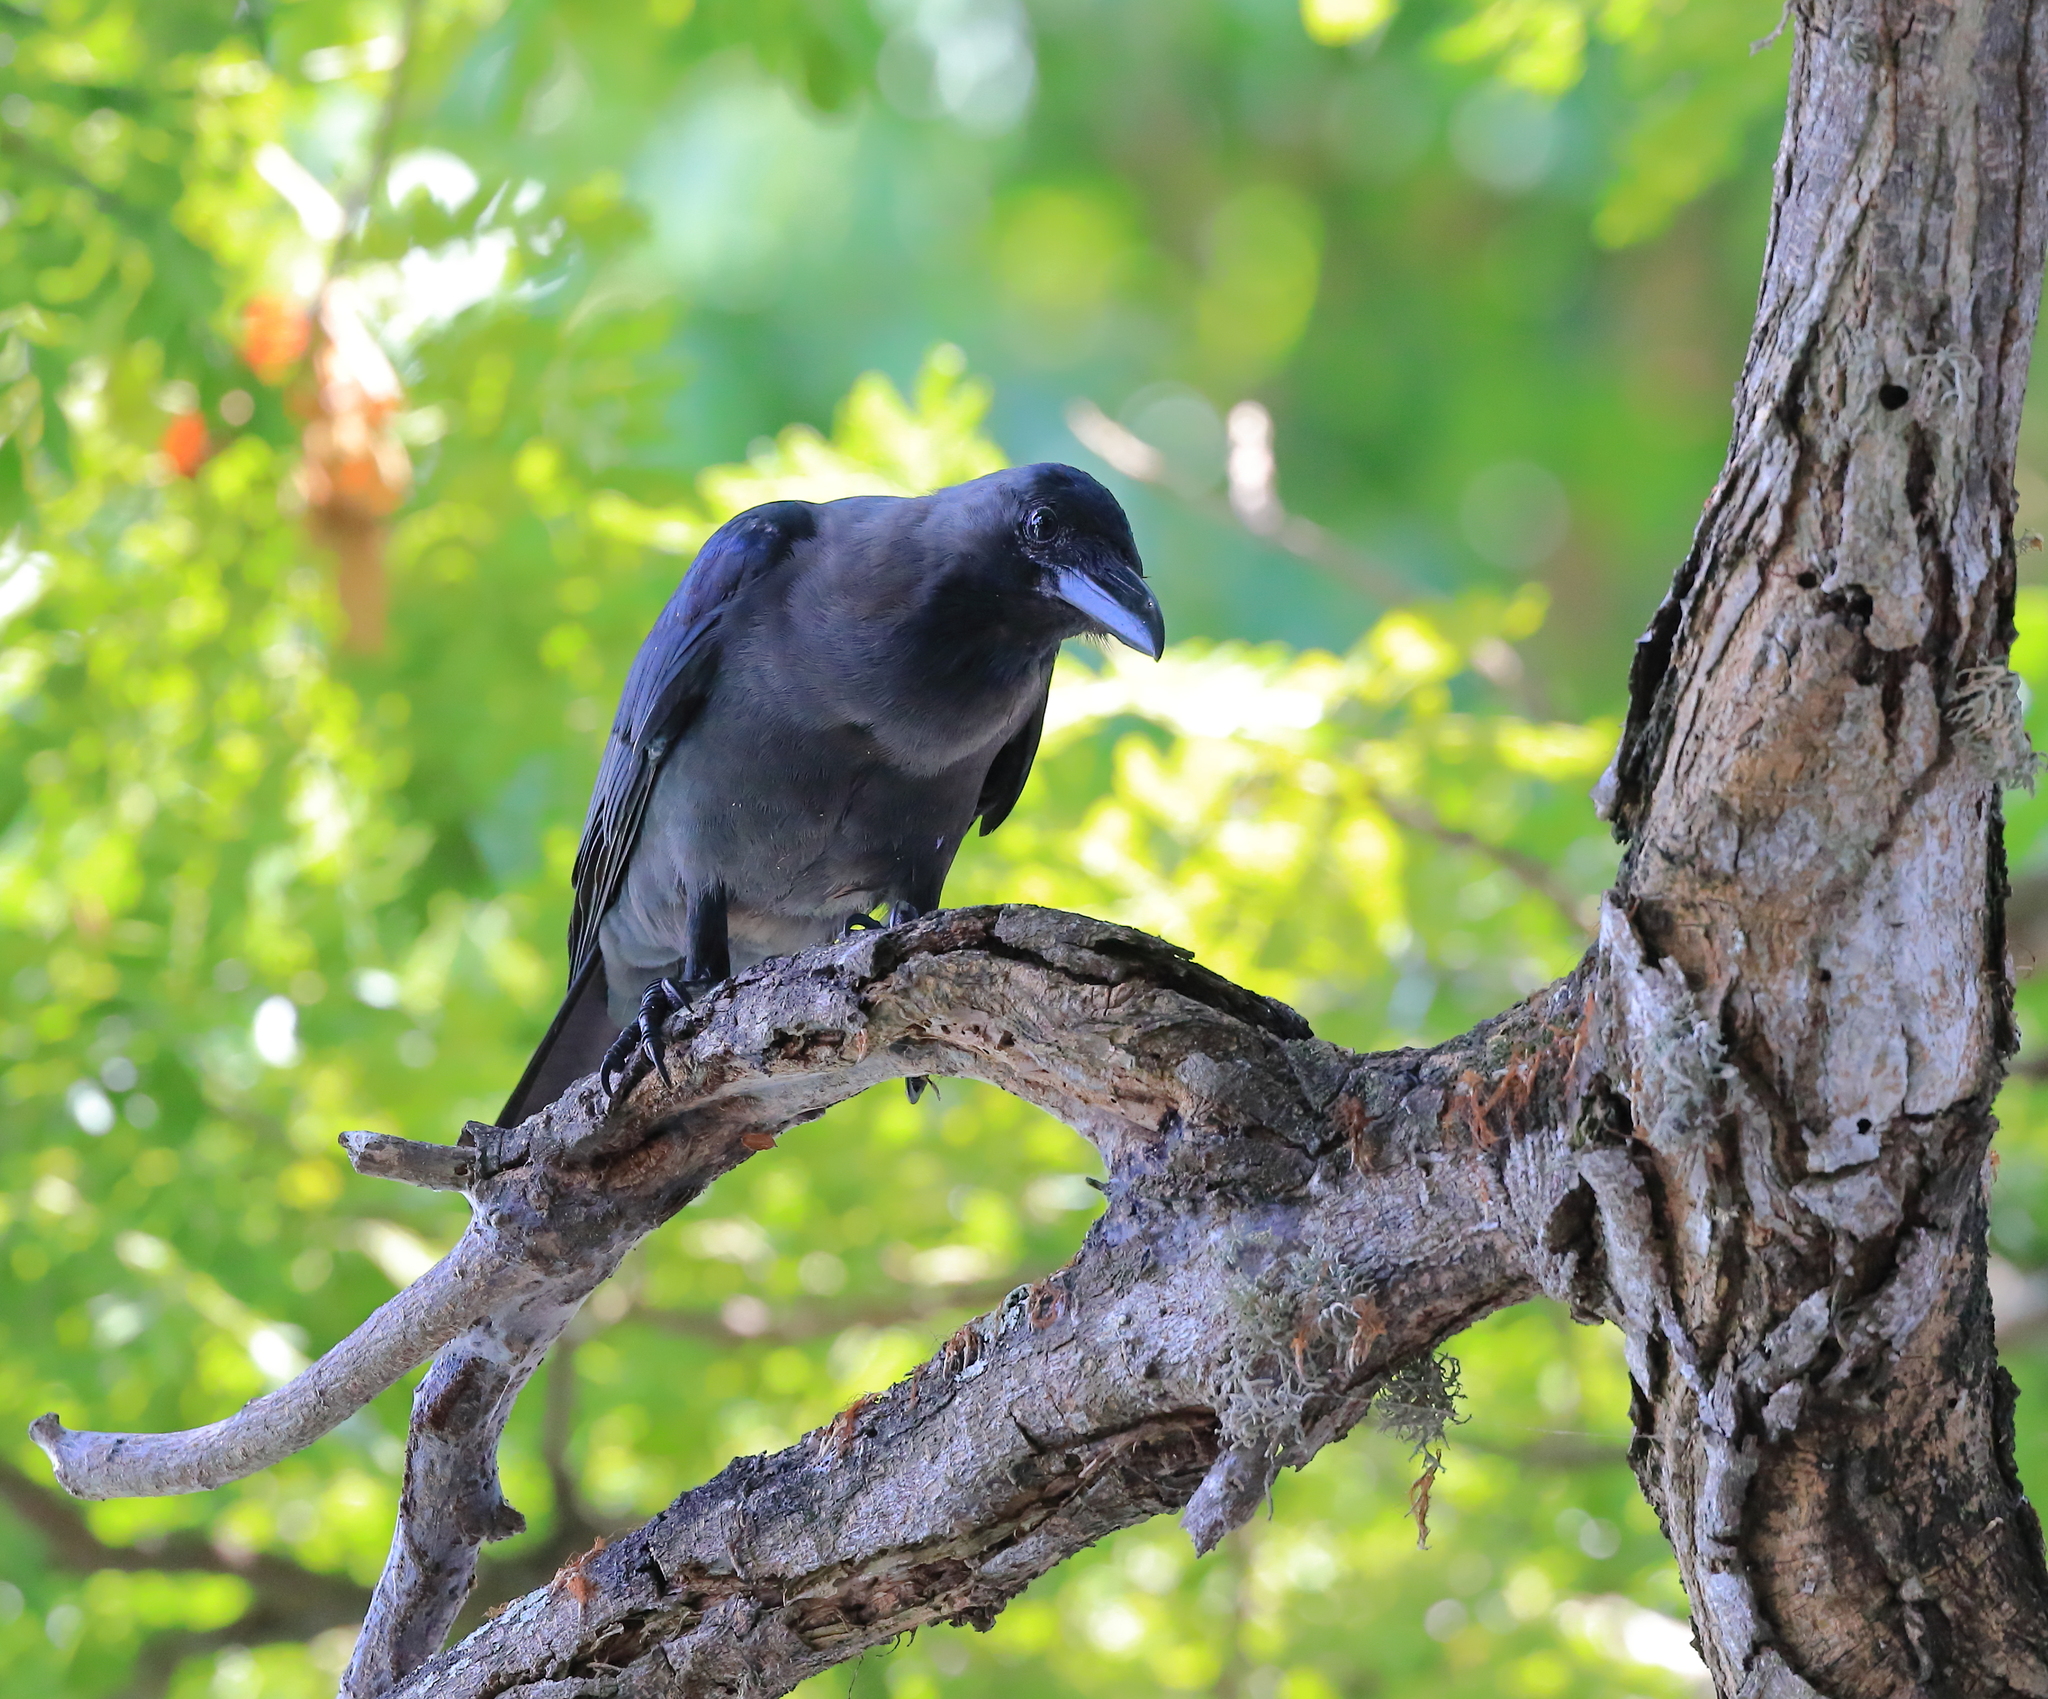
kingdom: Animalia
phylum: Chordata
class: Aves
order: Passeriformes
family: Corvidae
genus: Corvus
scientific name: Corvus splendens
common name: House crow
